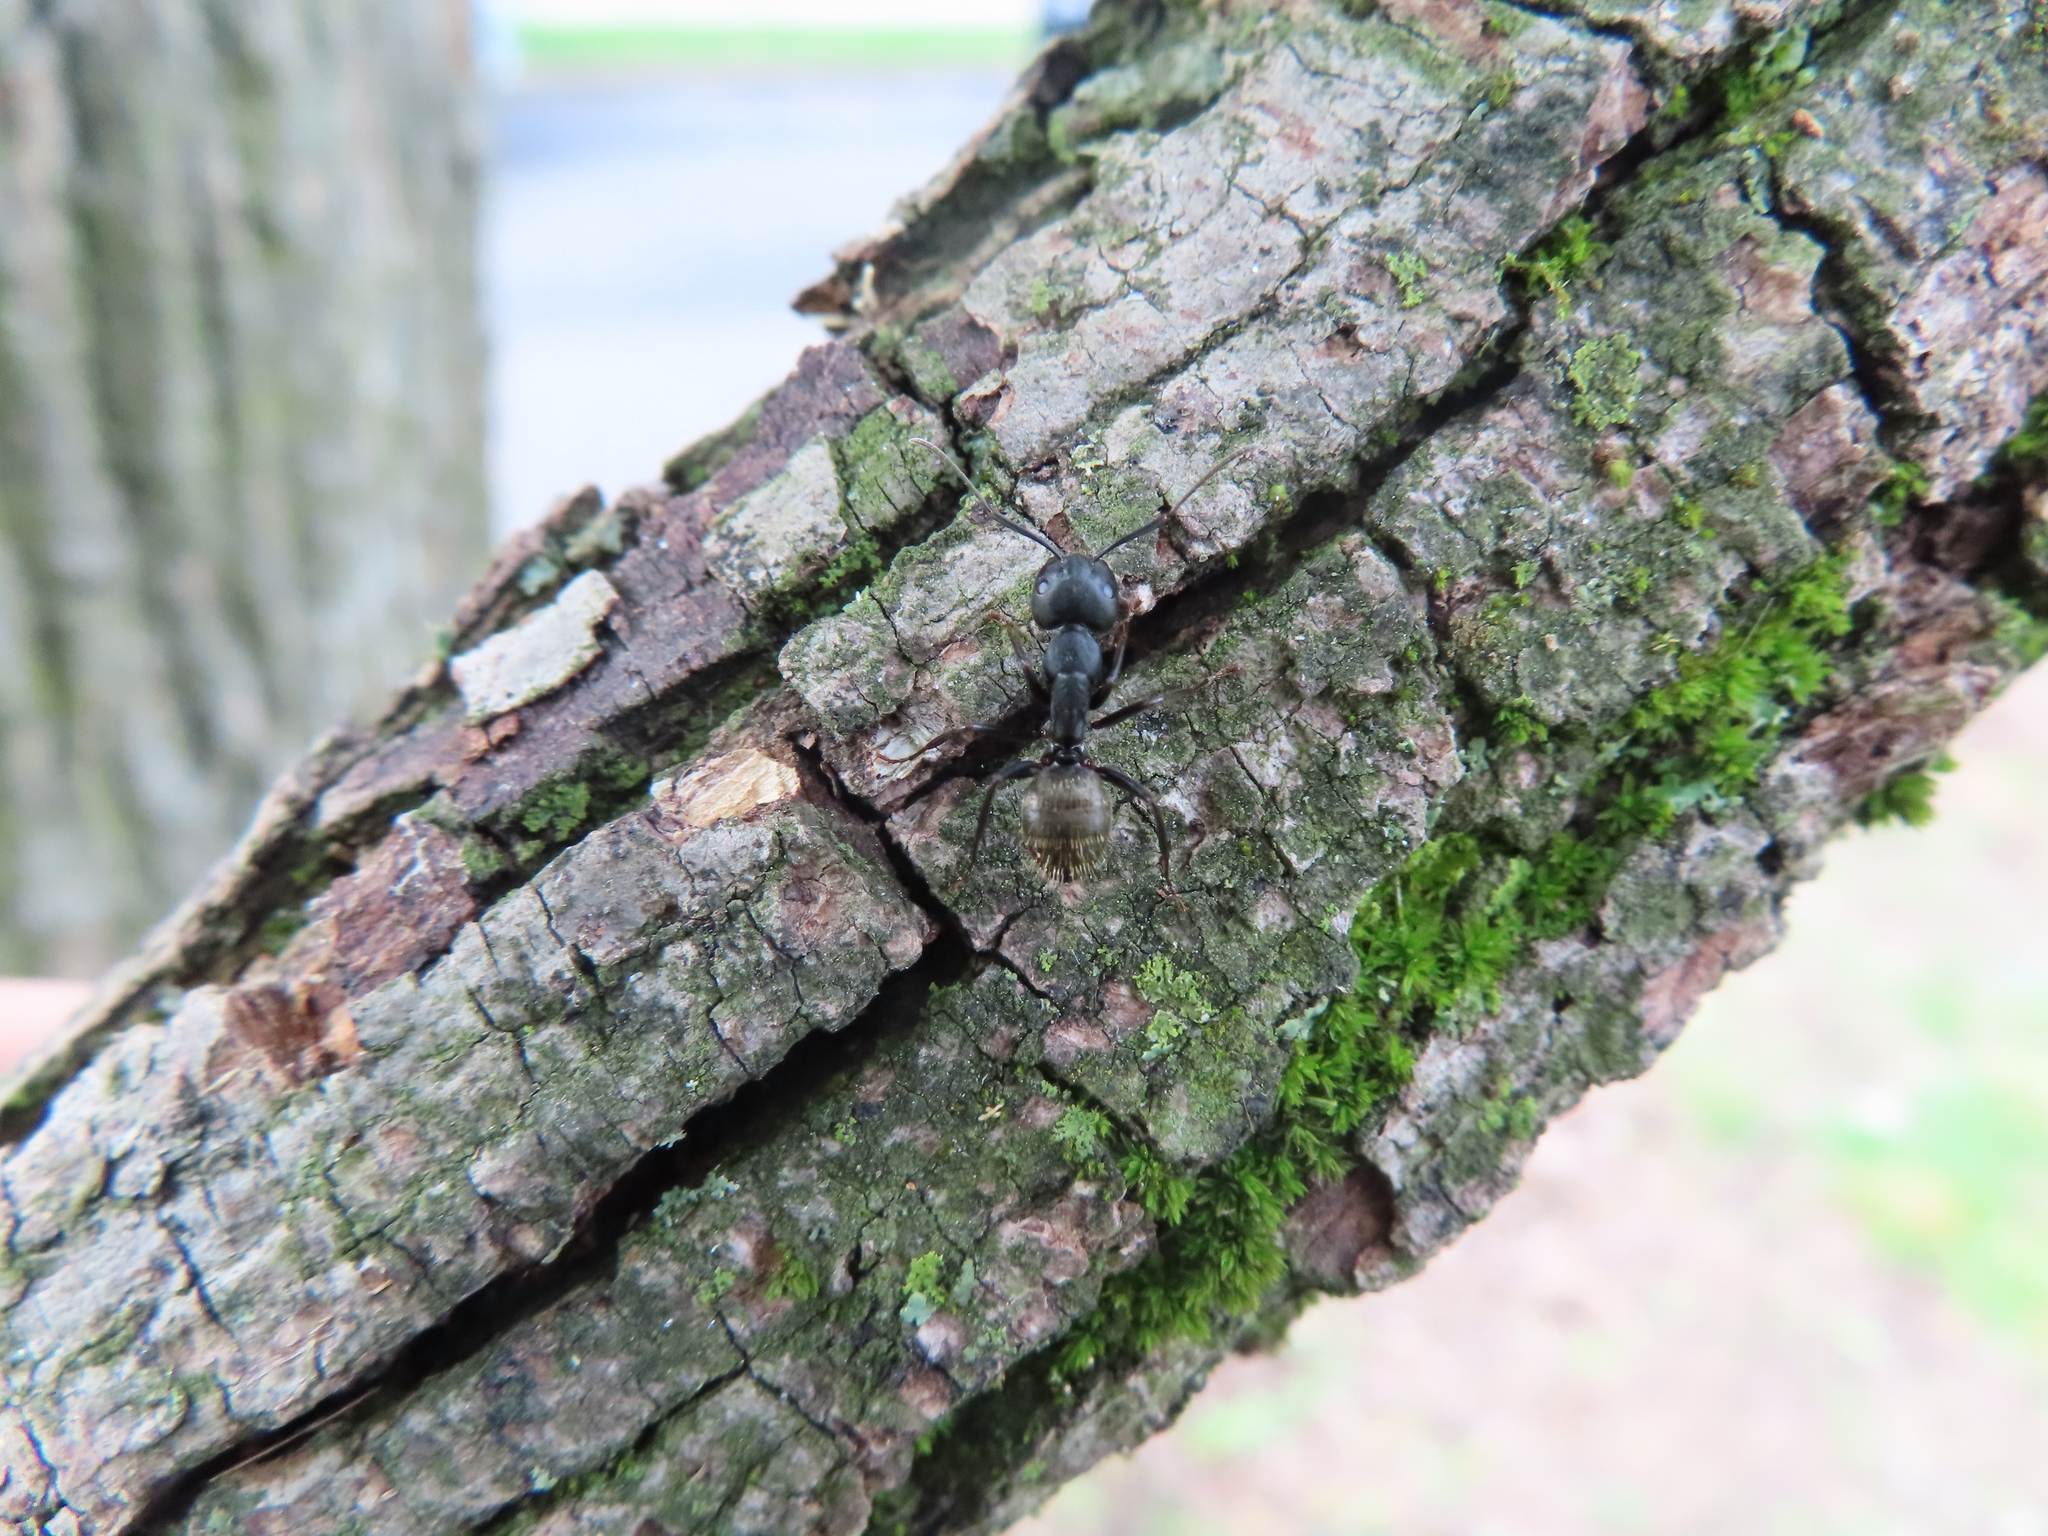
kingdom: Animalia
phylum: Arthropoda
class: Insecta
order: Hymenoptera
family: Formicidae
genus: Camponotus
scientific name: Camponotus pennsylvanicus
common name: Black carpenter ant
